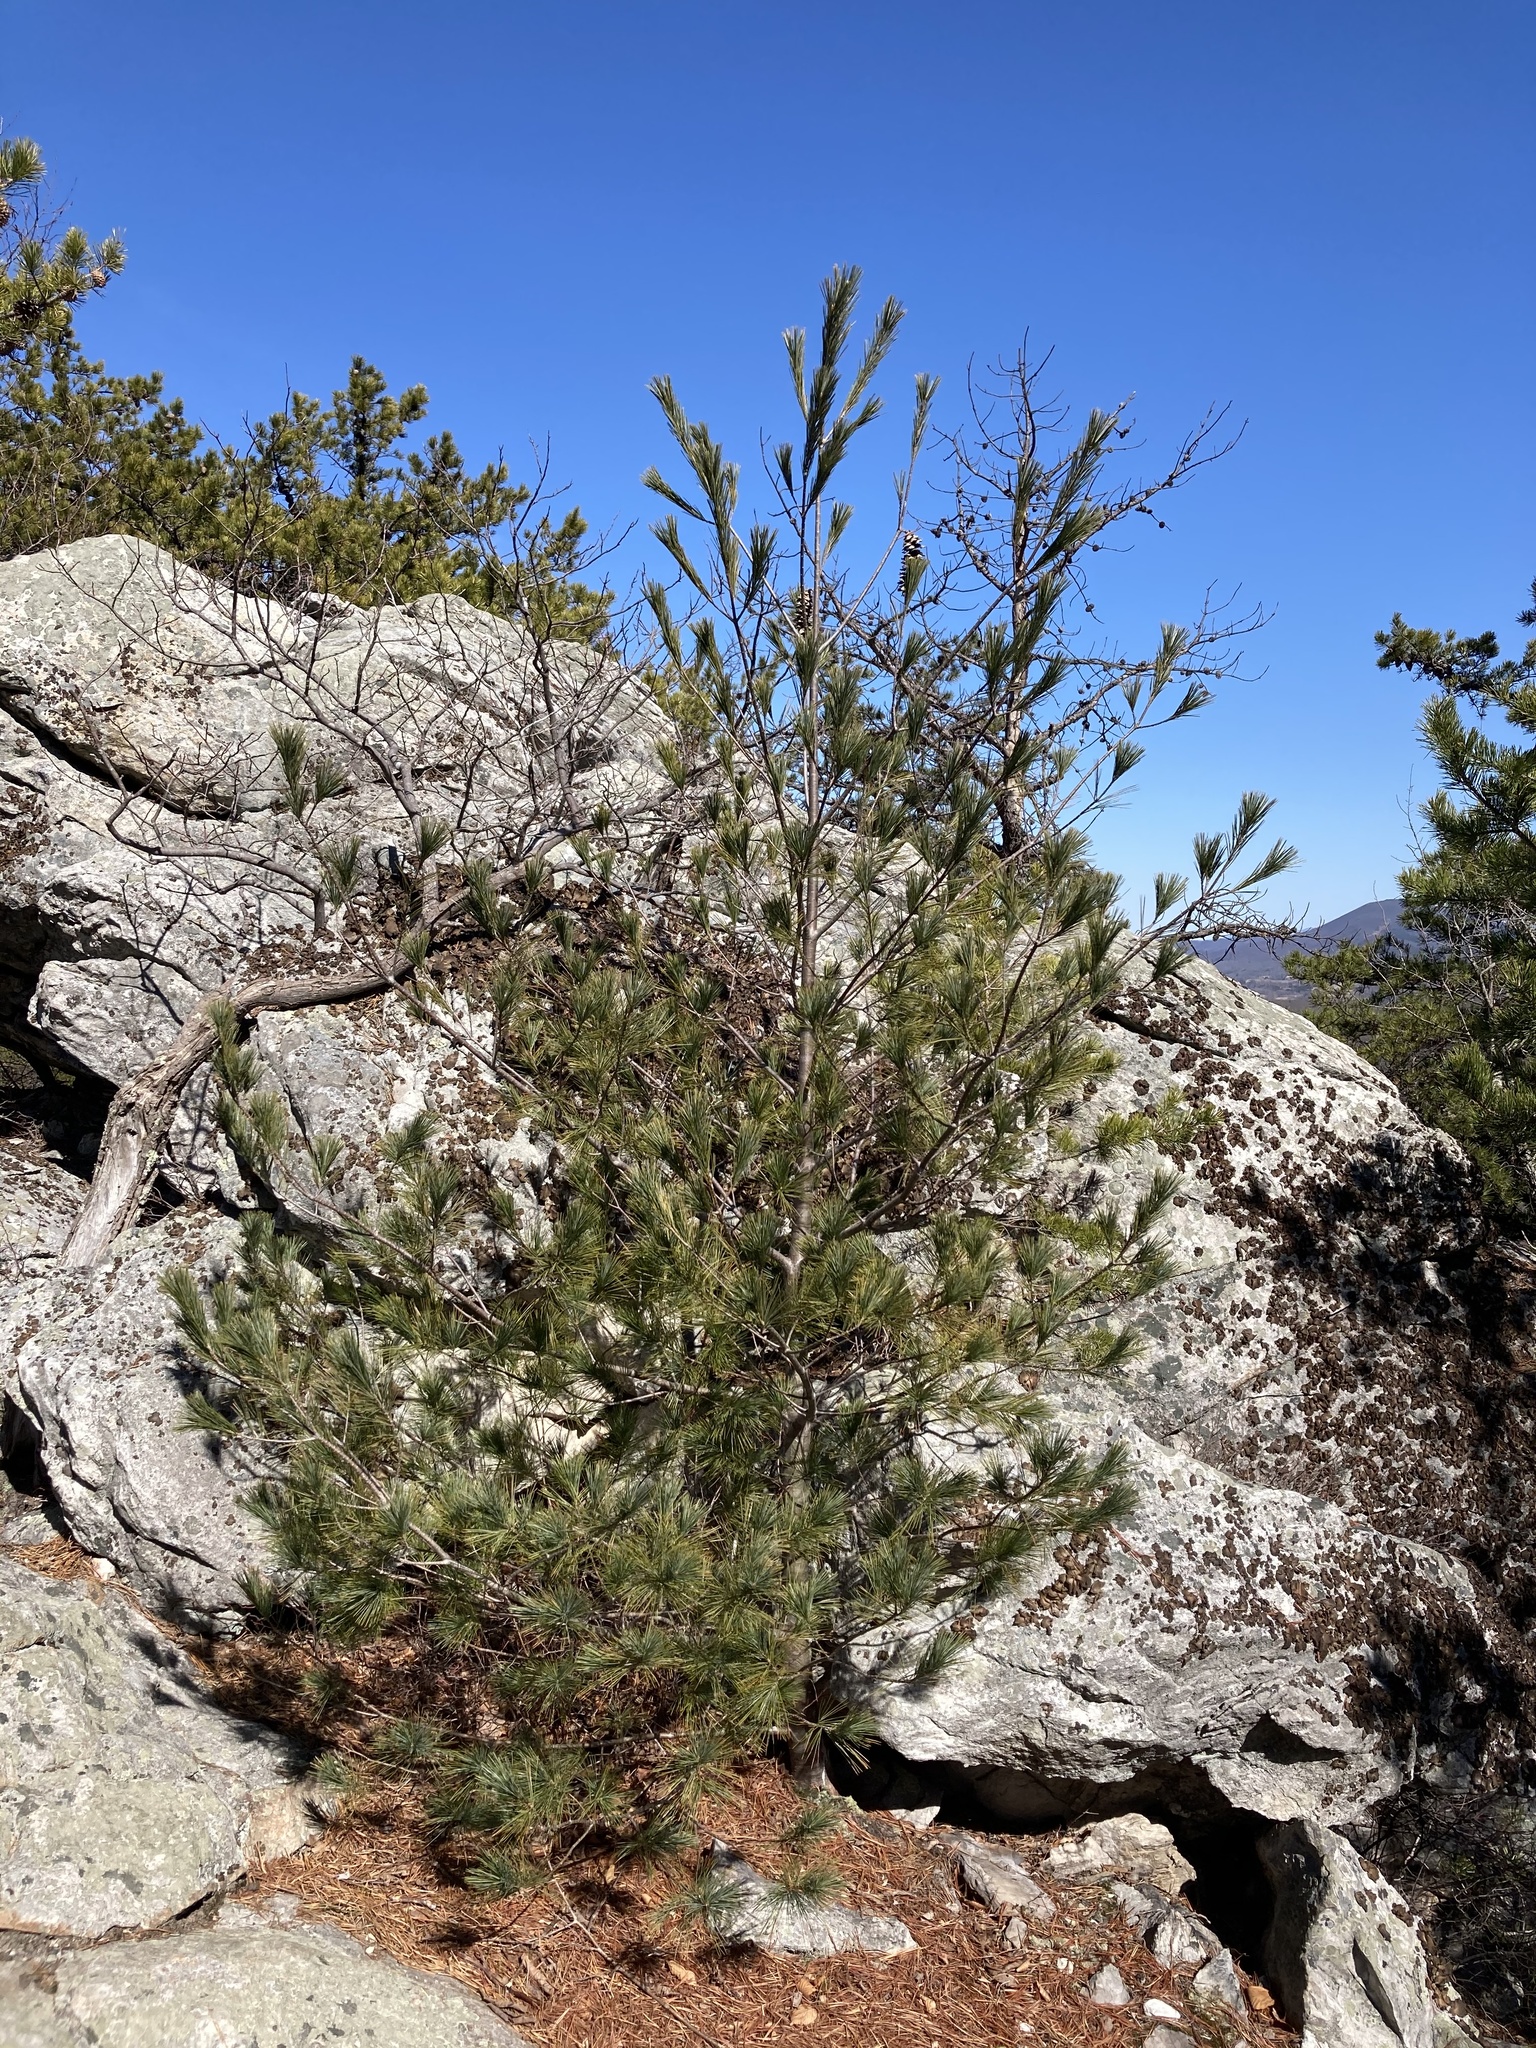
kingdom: Plantae
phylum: Tracheophyta
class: Pinopsida
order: Pinales
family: Pinaceae
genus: Pinus
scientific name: Pinus strobus
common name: Weymouth pine
